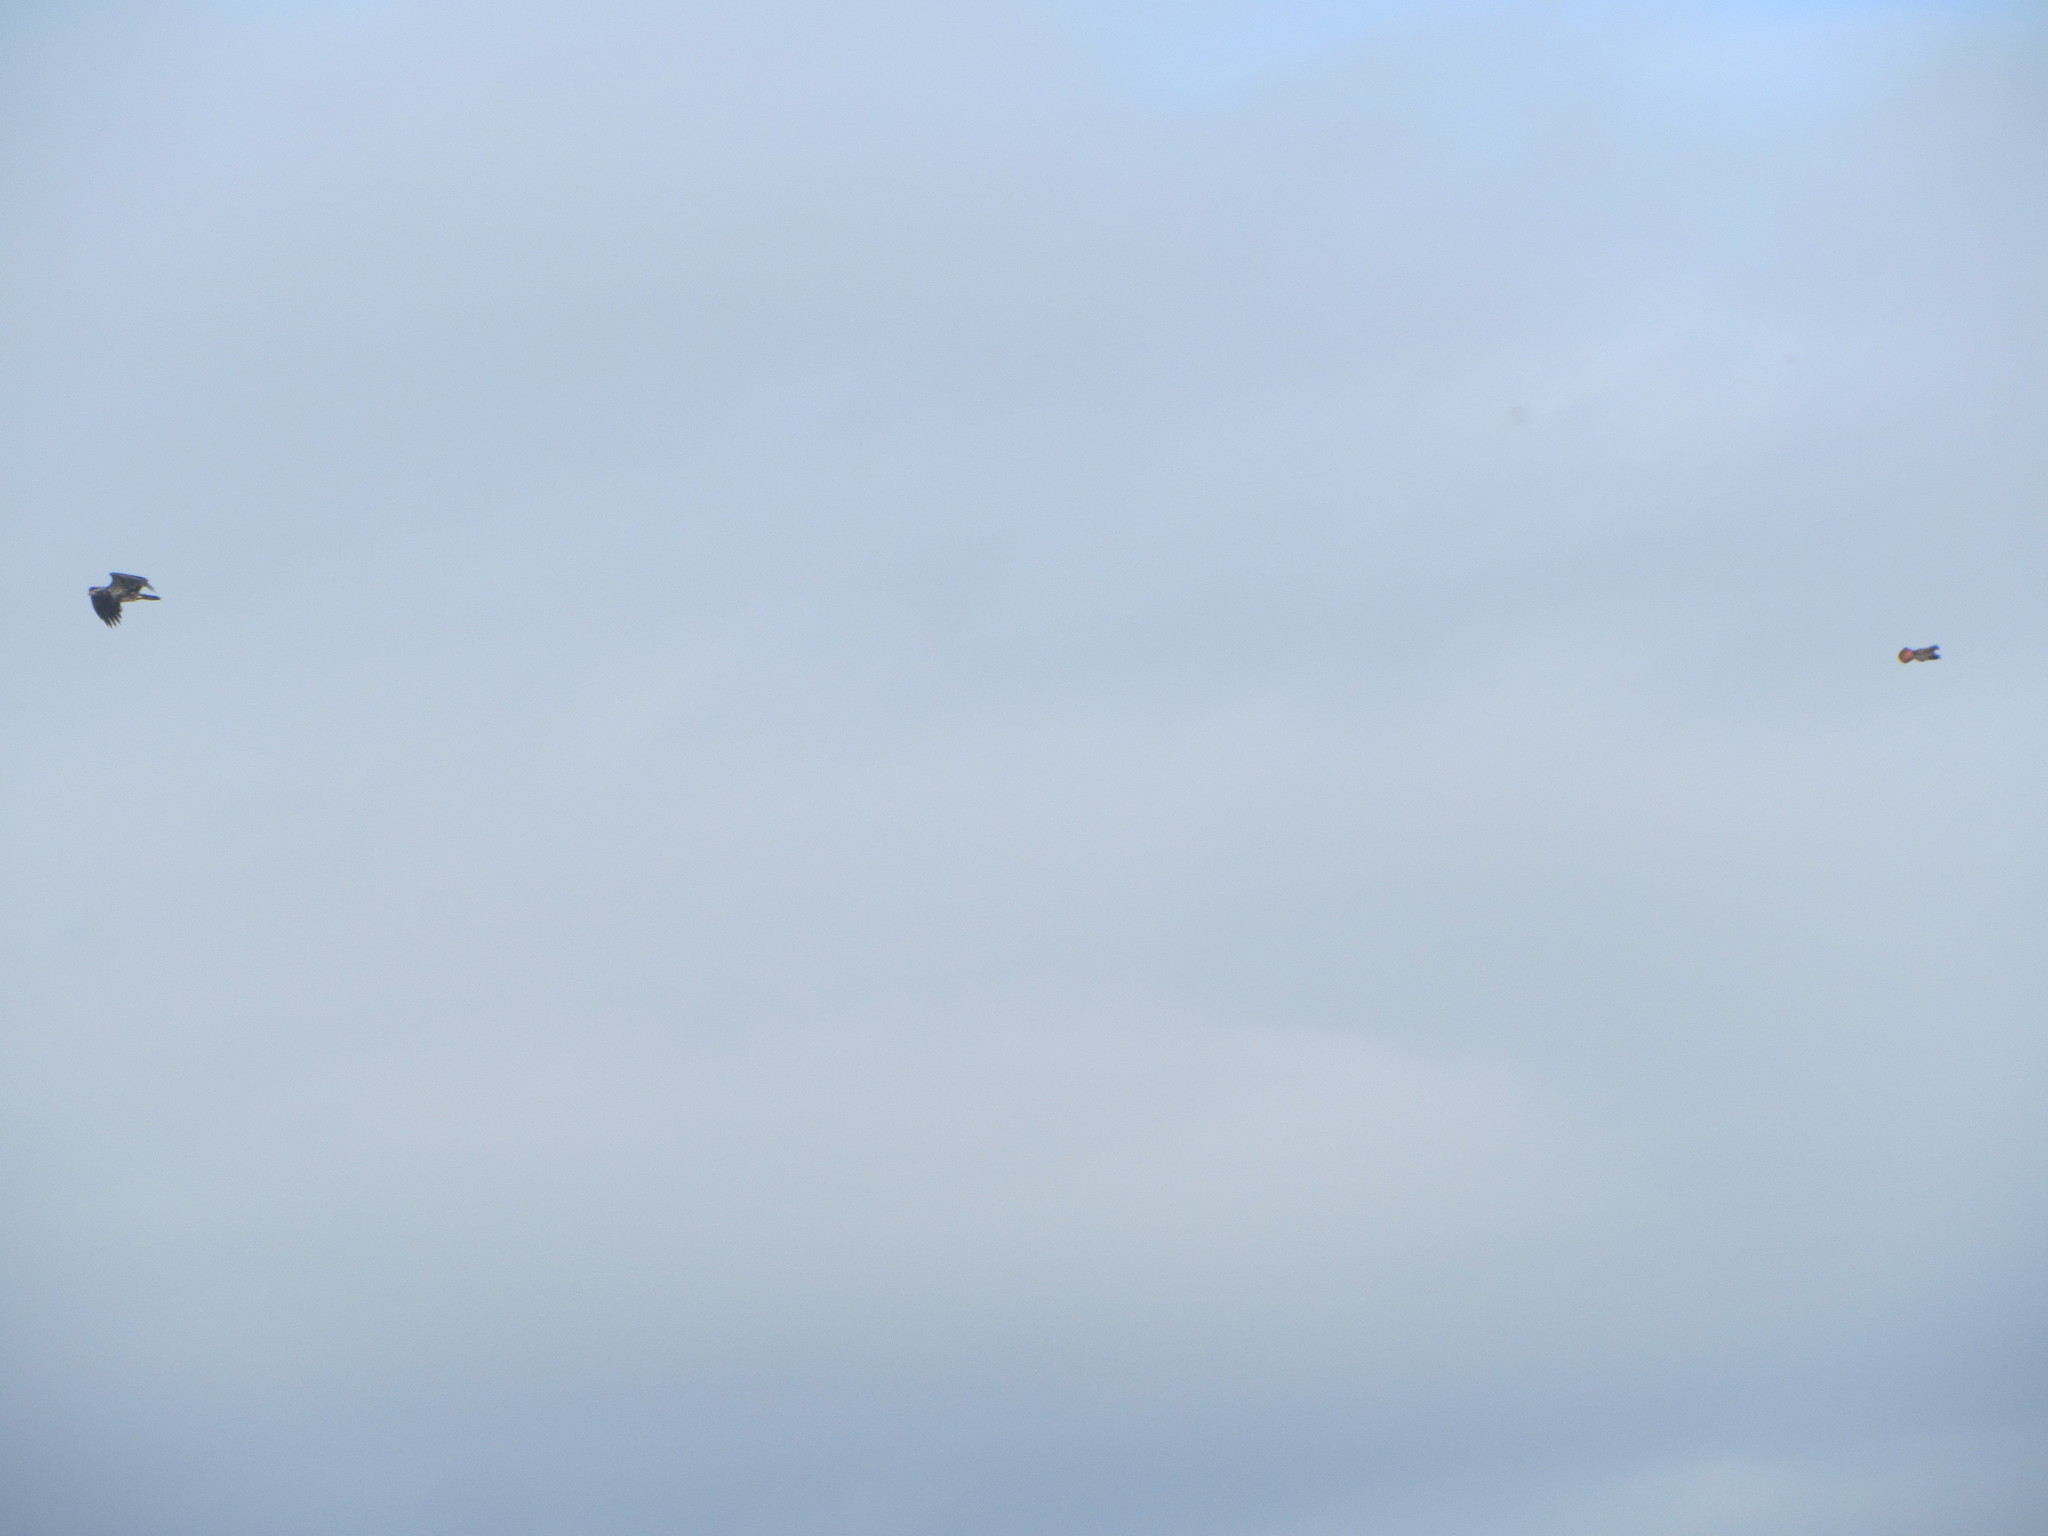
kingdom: Animalia
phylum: Chordata
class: Aves
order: Accipitriformes
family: Accipitridae
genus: Haliaeetus
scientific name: Haliaeetus leucocephalus
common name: Bald eagle
